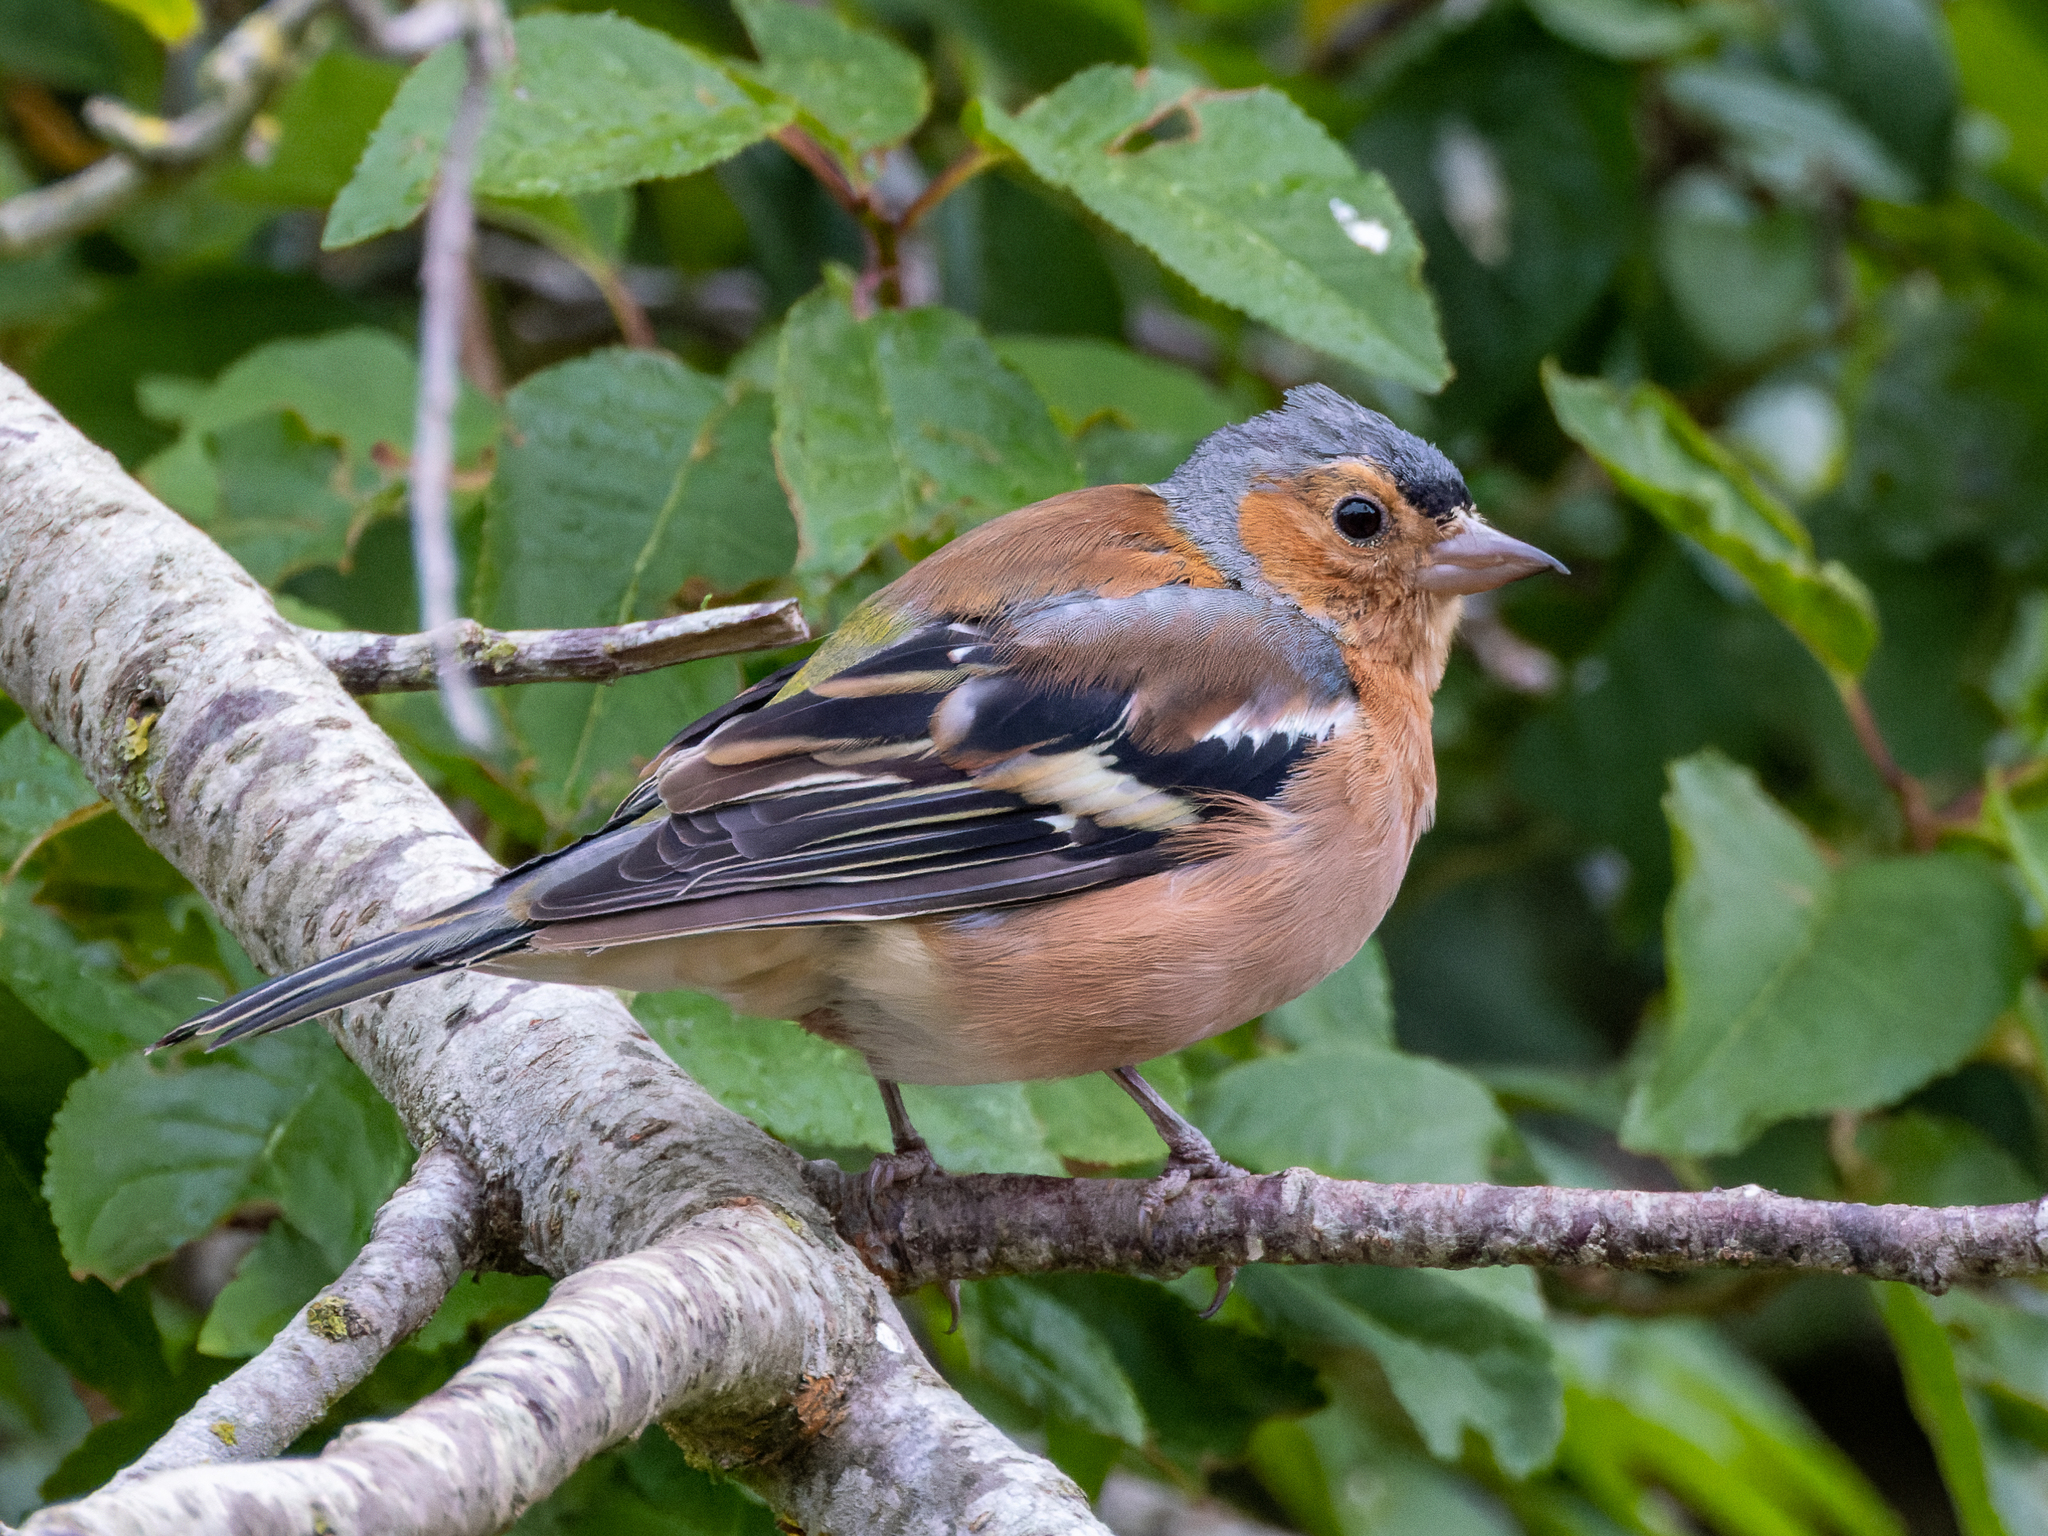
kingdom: Animalia
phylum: Chordata
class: Aves
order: Passeriformes
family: Fringillidae
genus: Fringilla
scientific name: Fringilla coelebs
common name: Common chaffinch
